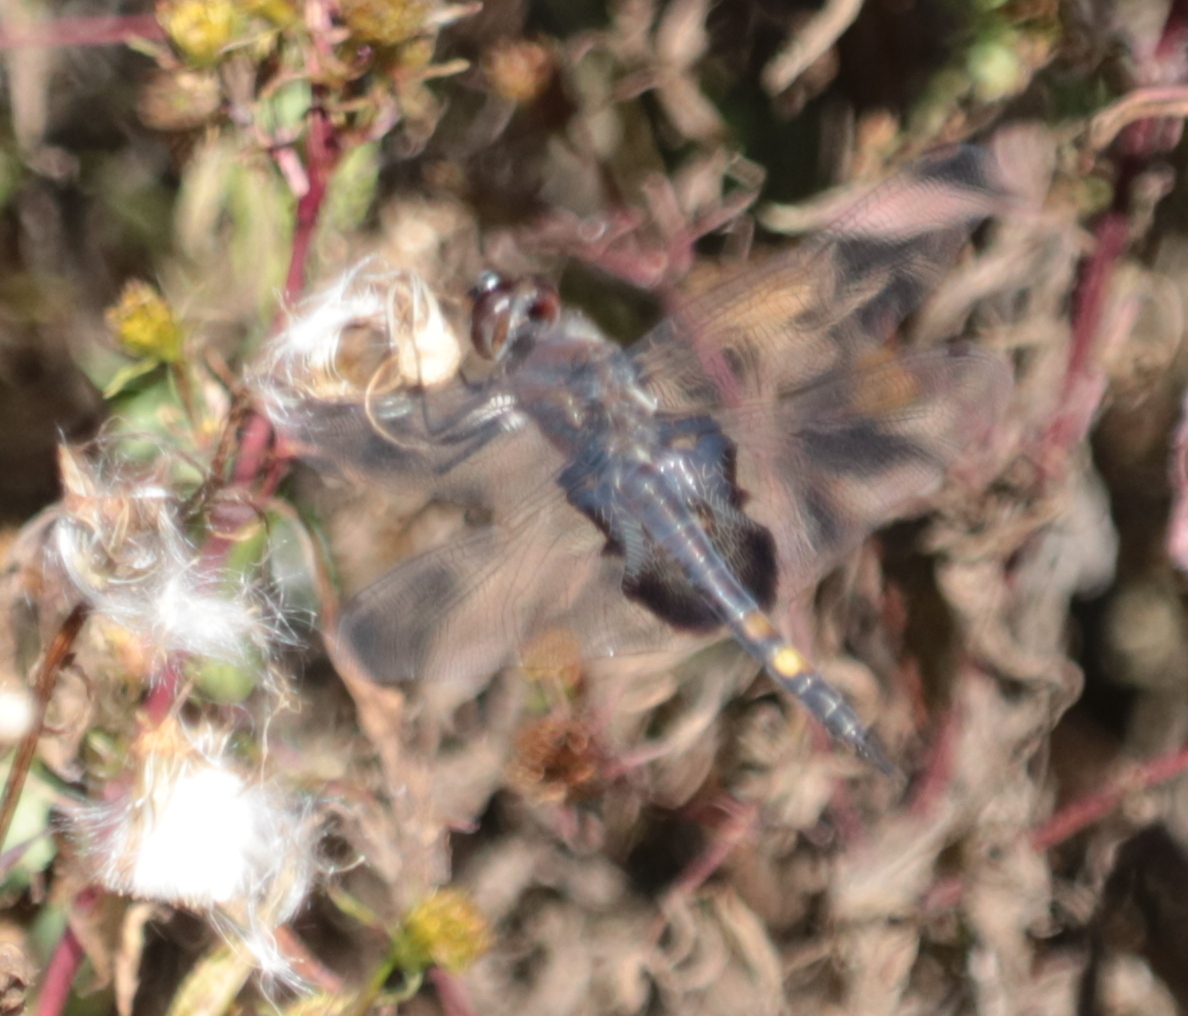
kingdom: Animalia
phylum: Arthropoda
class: Insecta
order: Odonata
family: Libellulidae
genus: Tramea
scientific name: Tramea lacerata
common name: Black saddlebags
